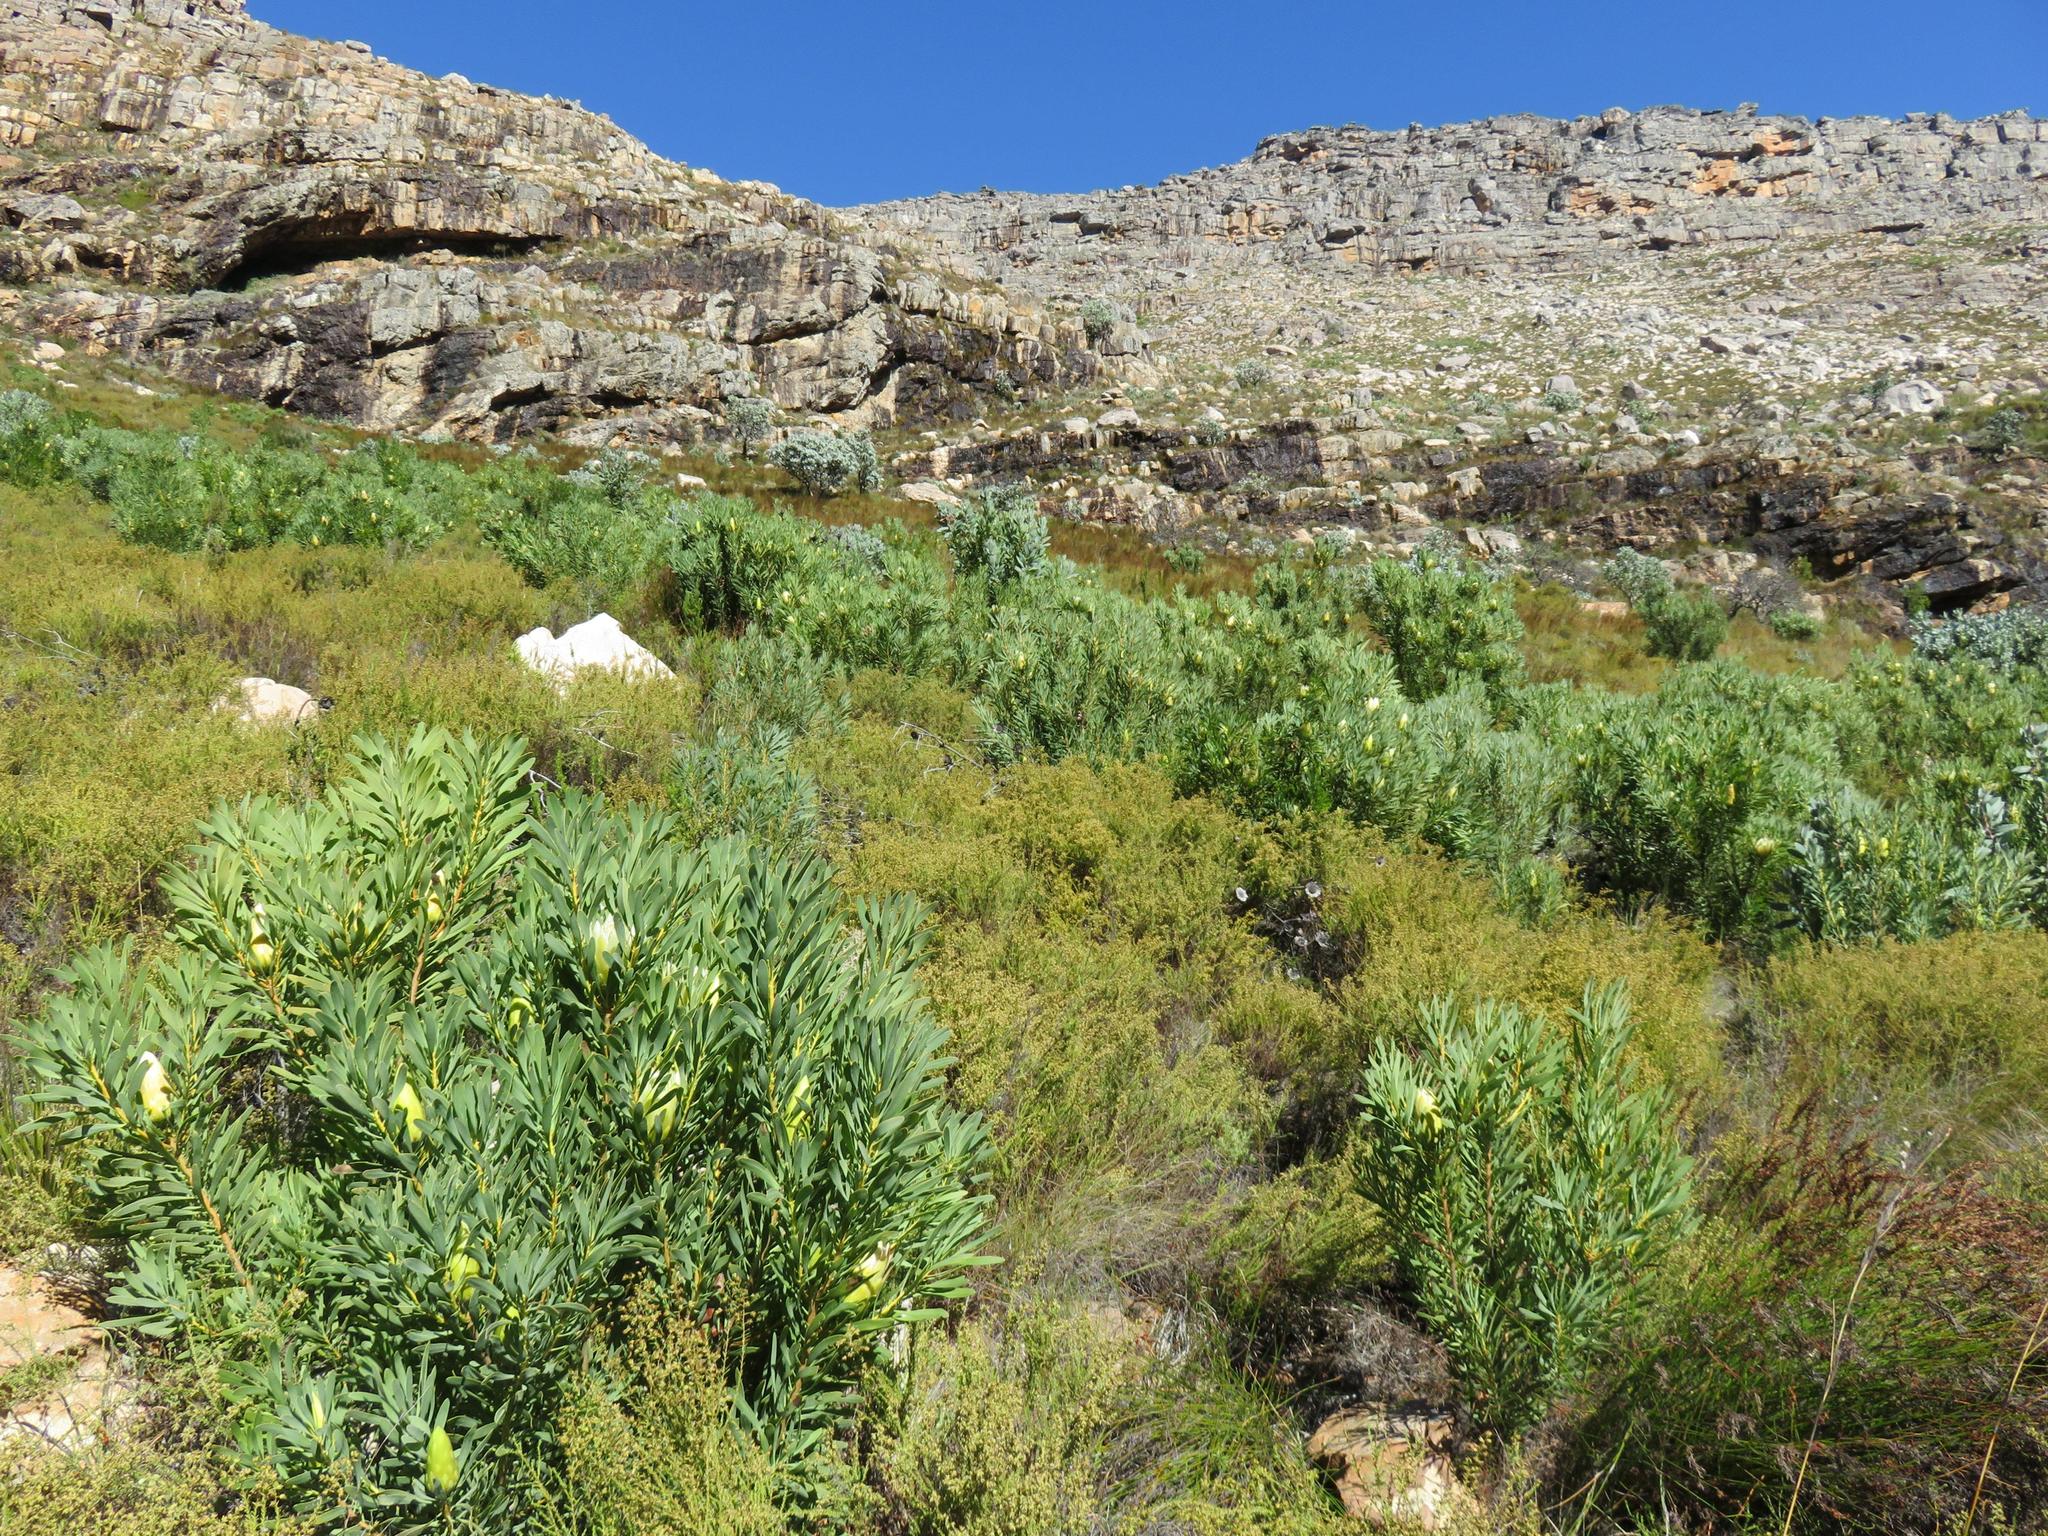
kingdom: Plantae
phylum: Tracheophyta
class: Magnoliopsida
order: Proteales
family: Proteaceae
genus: Protea
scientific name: Protea repens
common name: Sugarbush
